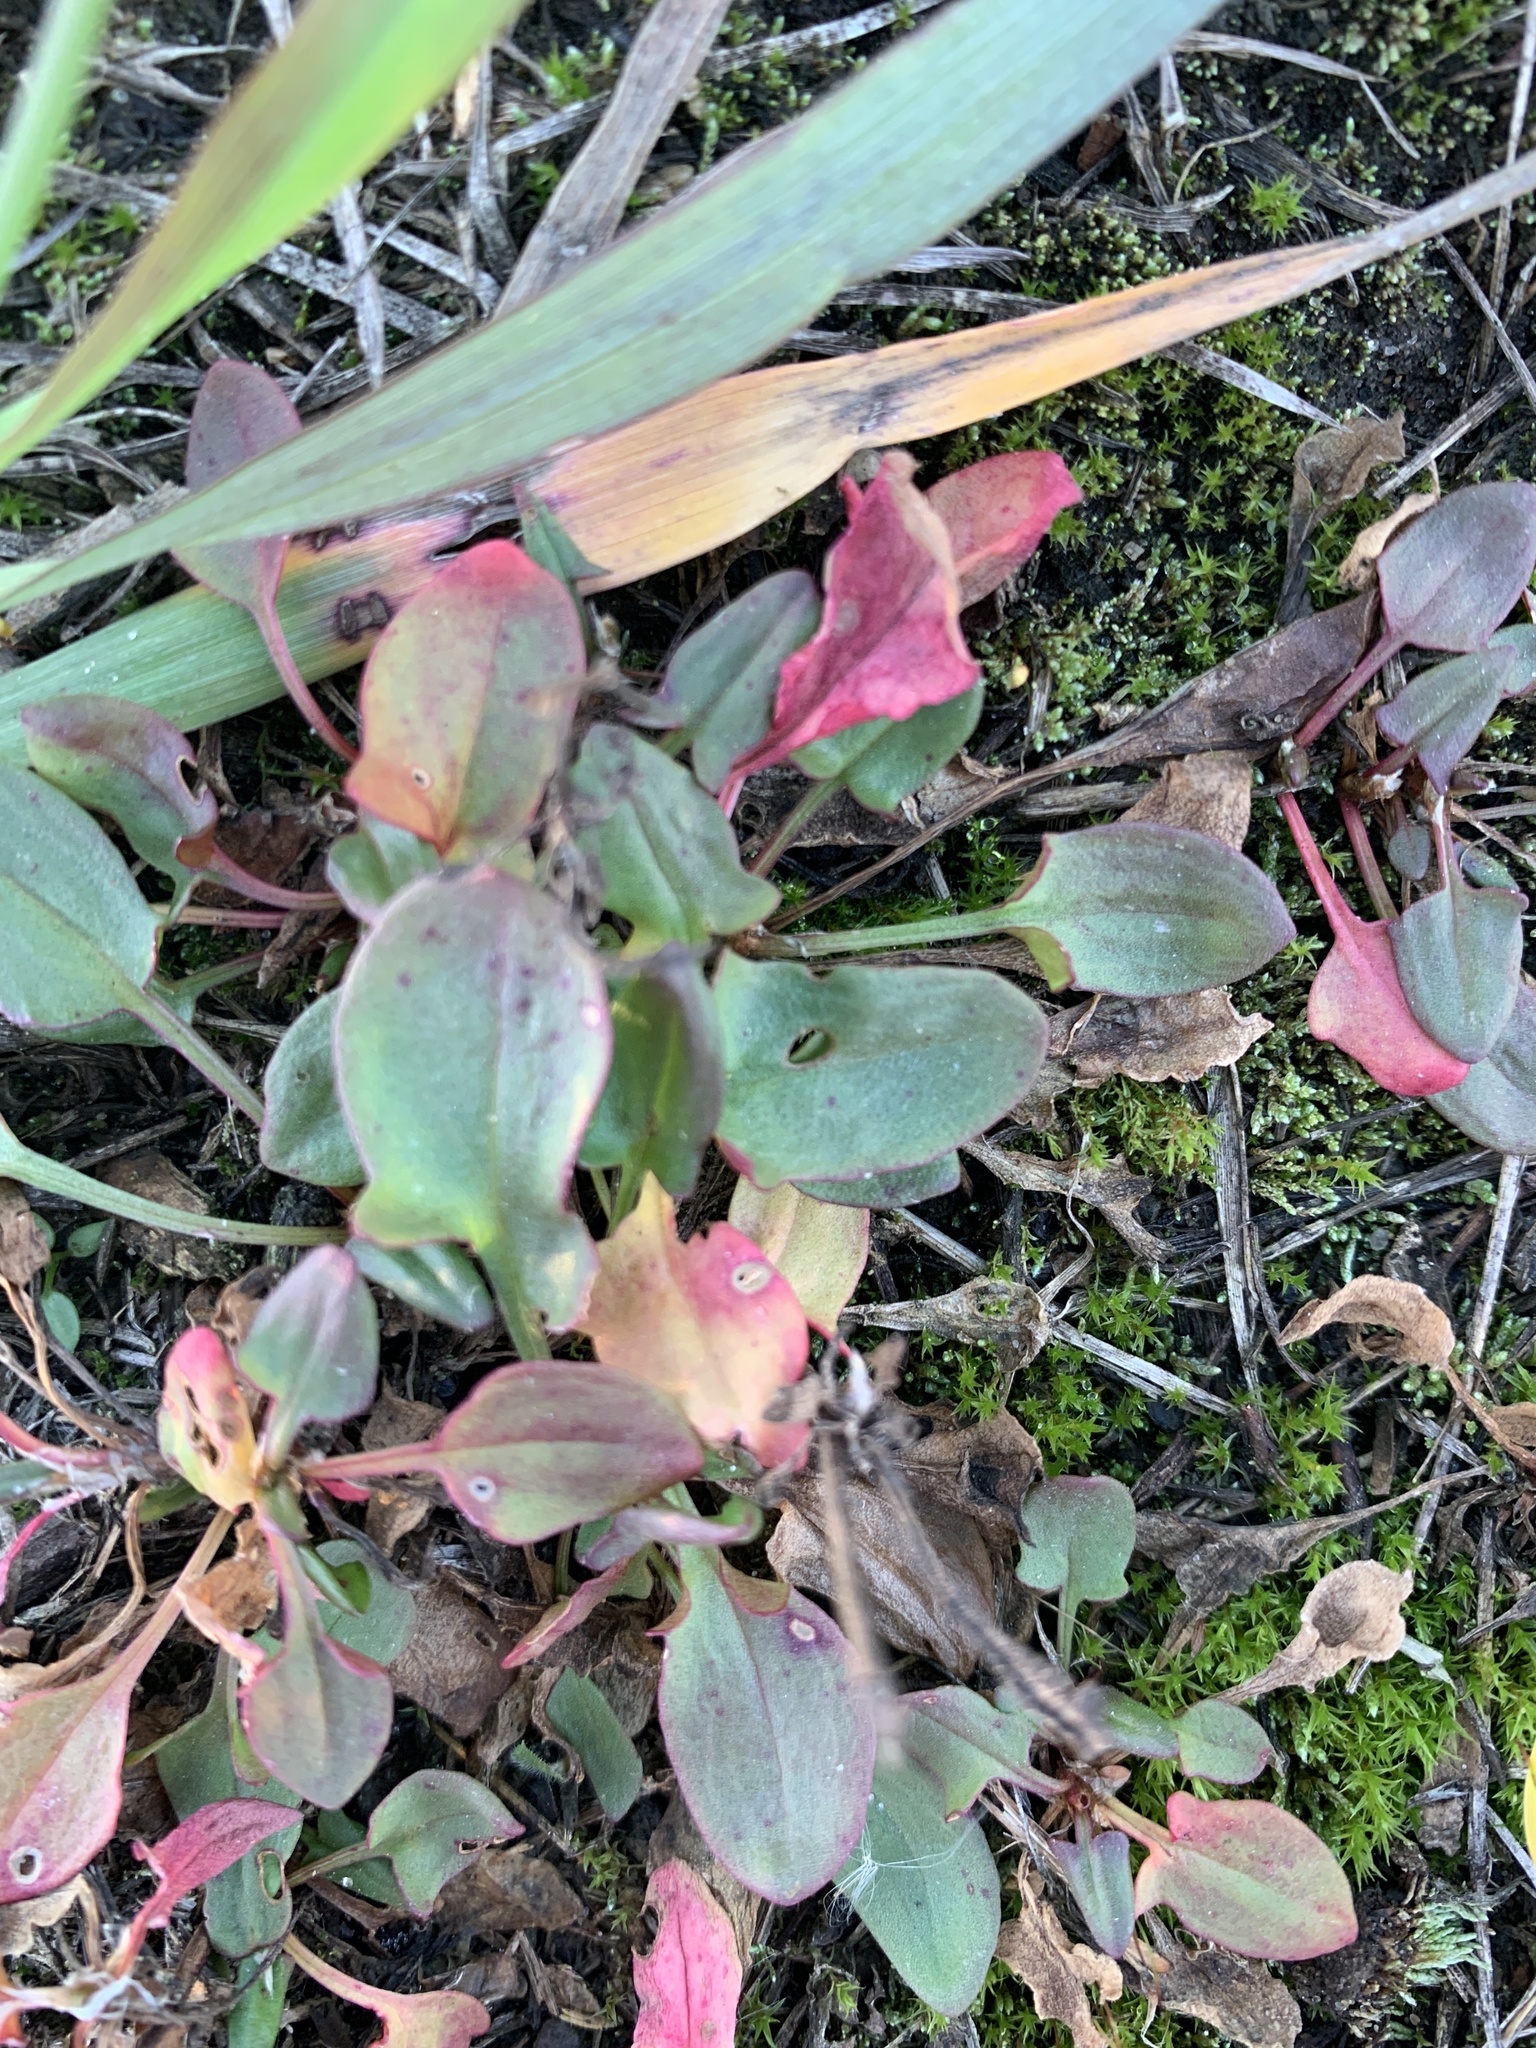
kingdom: Plantae
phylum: Tracheophyta
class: Magnoliopsida
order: Caryophyllales
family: Polygonaceae
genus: Rumex
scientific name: Rumex acetosella
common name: Common sheep sorrel
